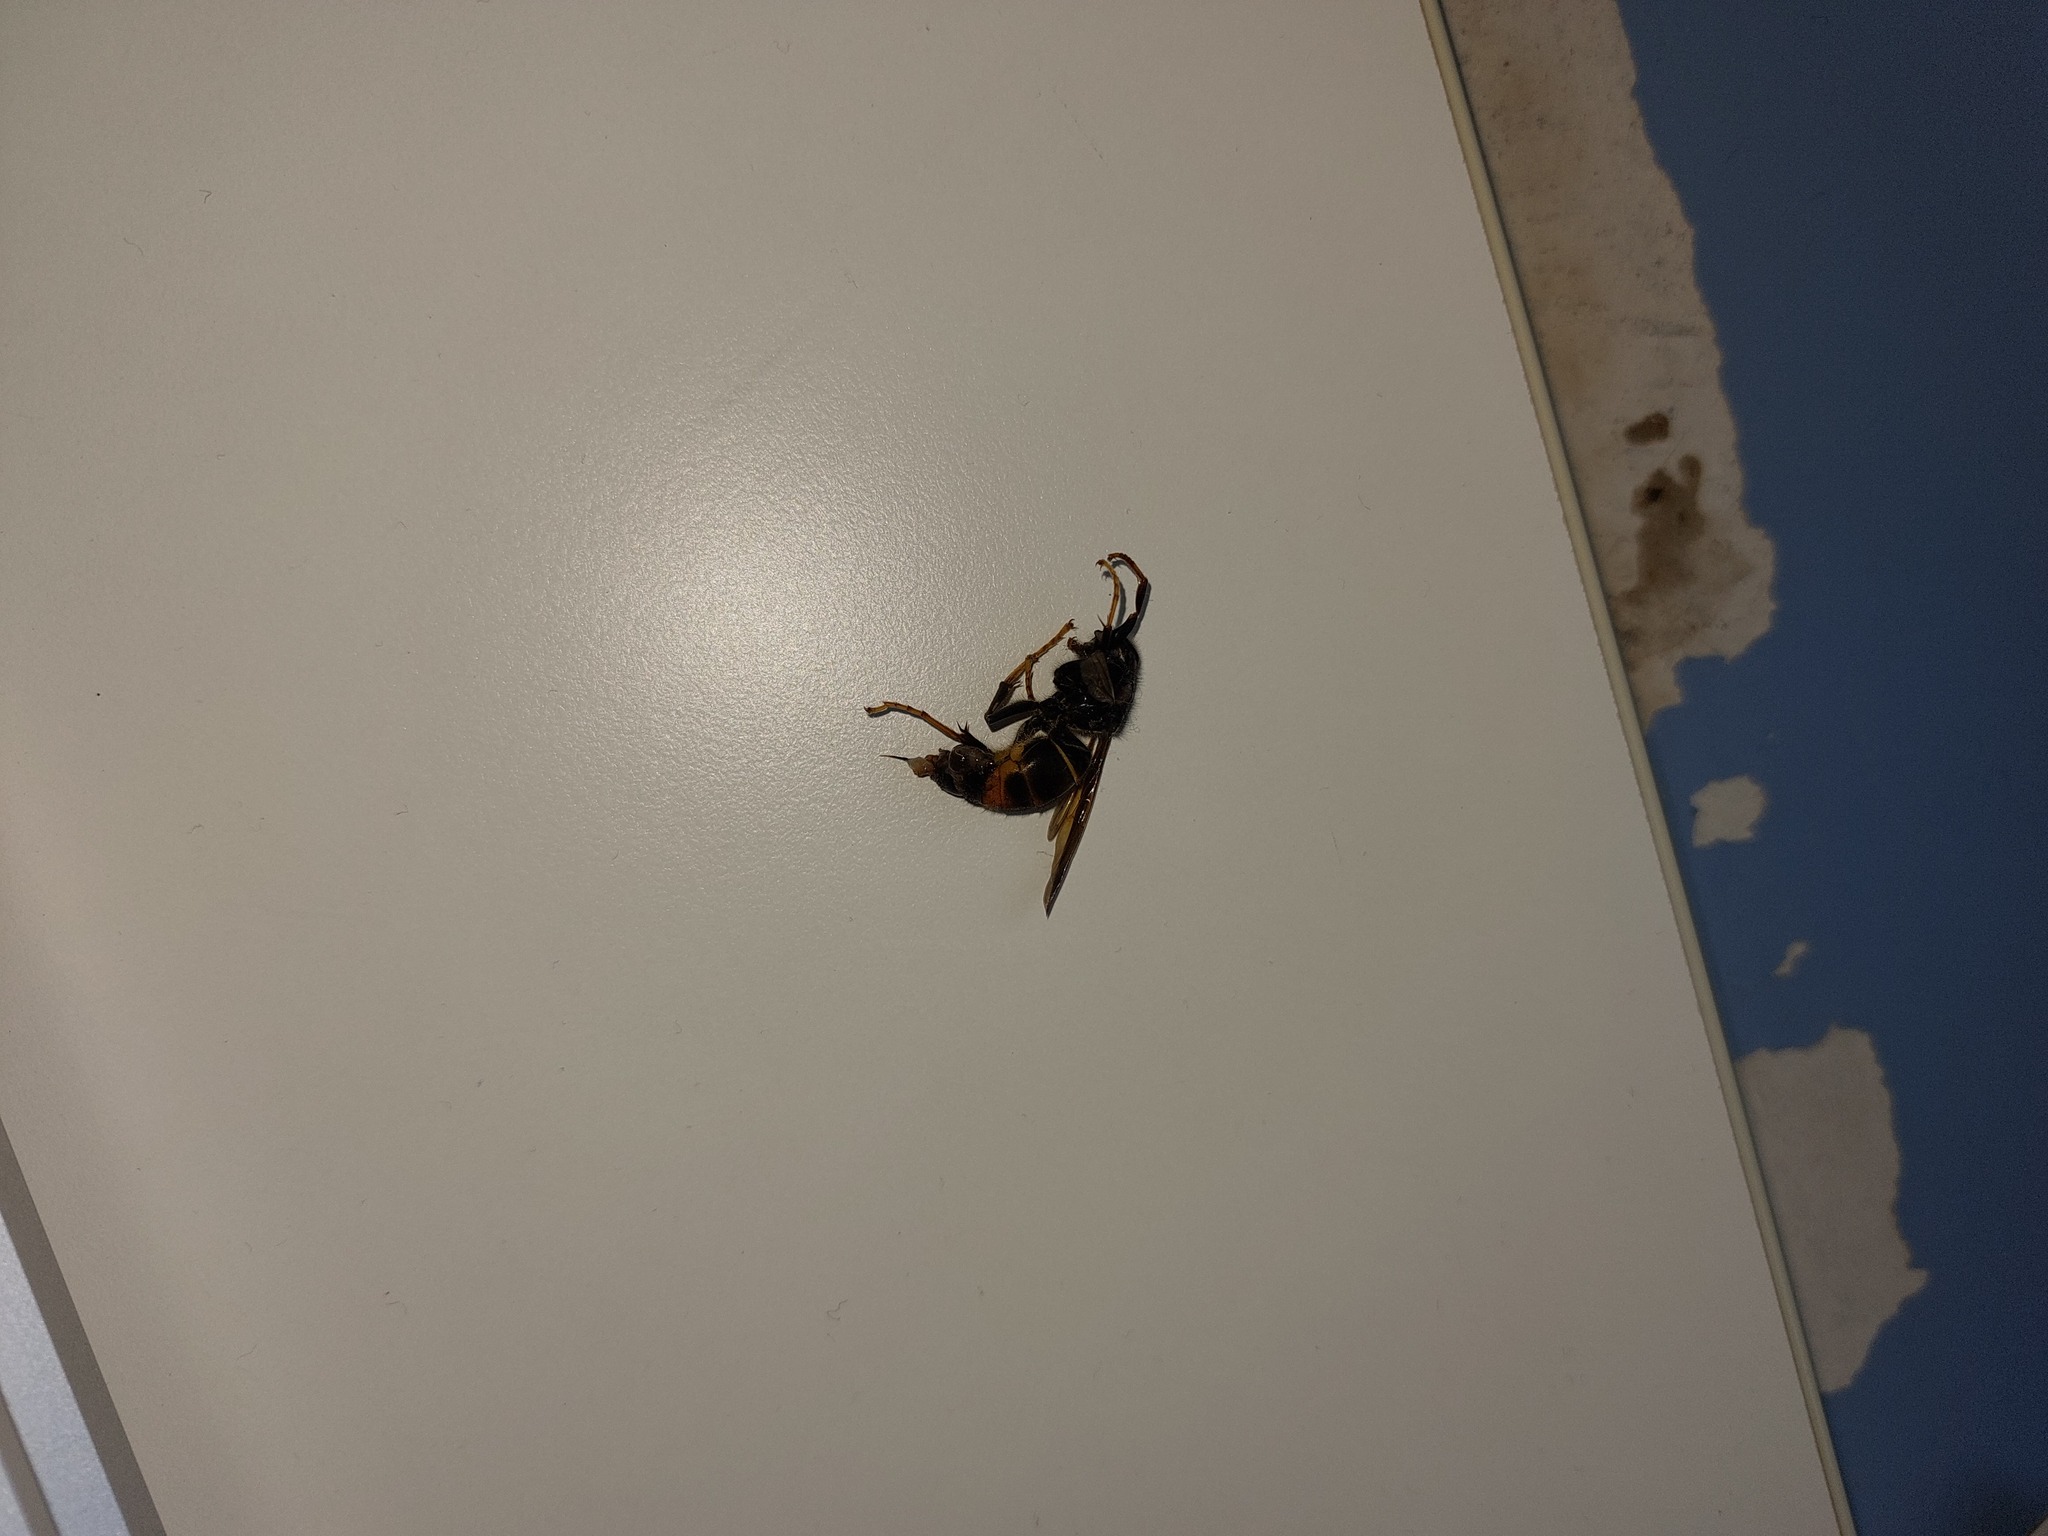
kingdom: Animalia
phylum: Arthropoda
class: Insecta
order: Hymenoptera
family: Vespidae
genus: Vespa
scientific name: Vespa velutina
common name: Asian hornet
